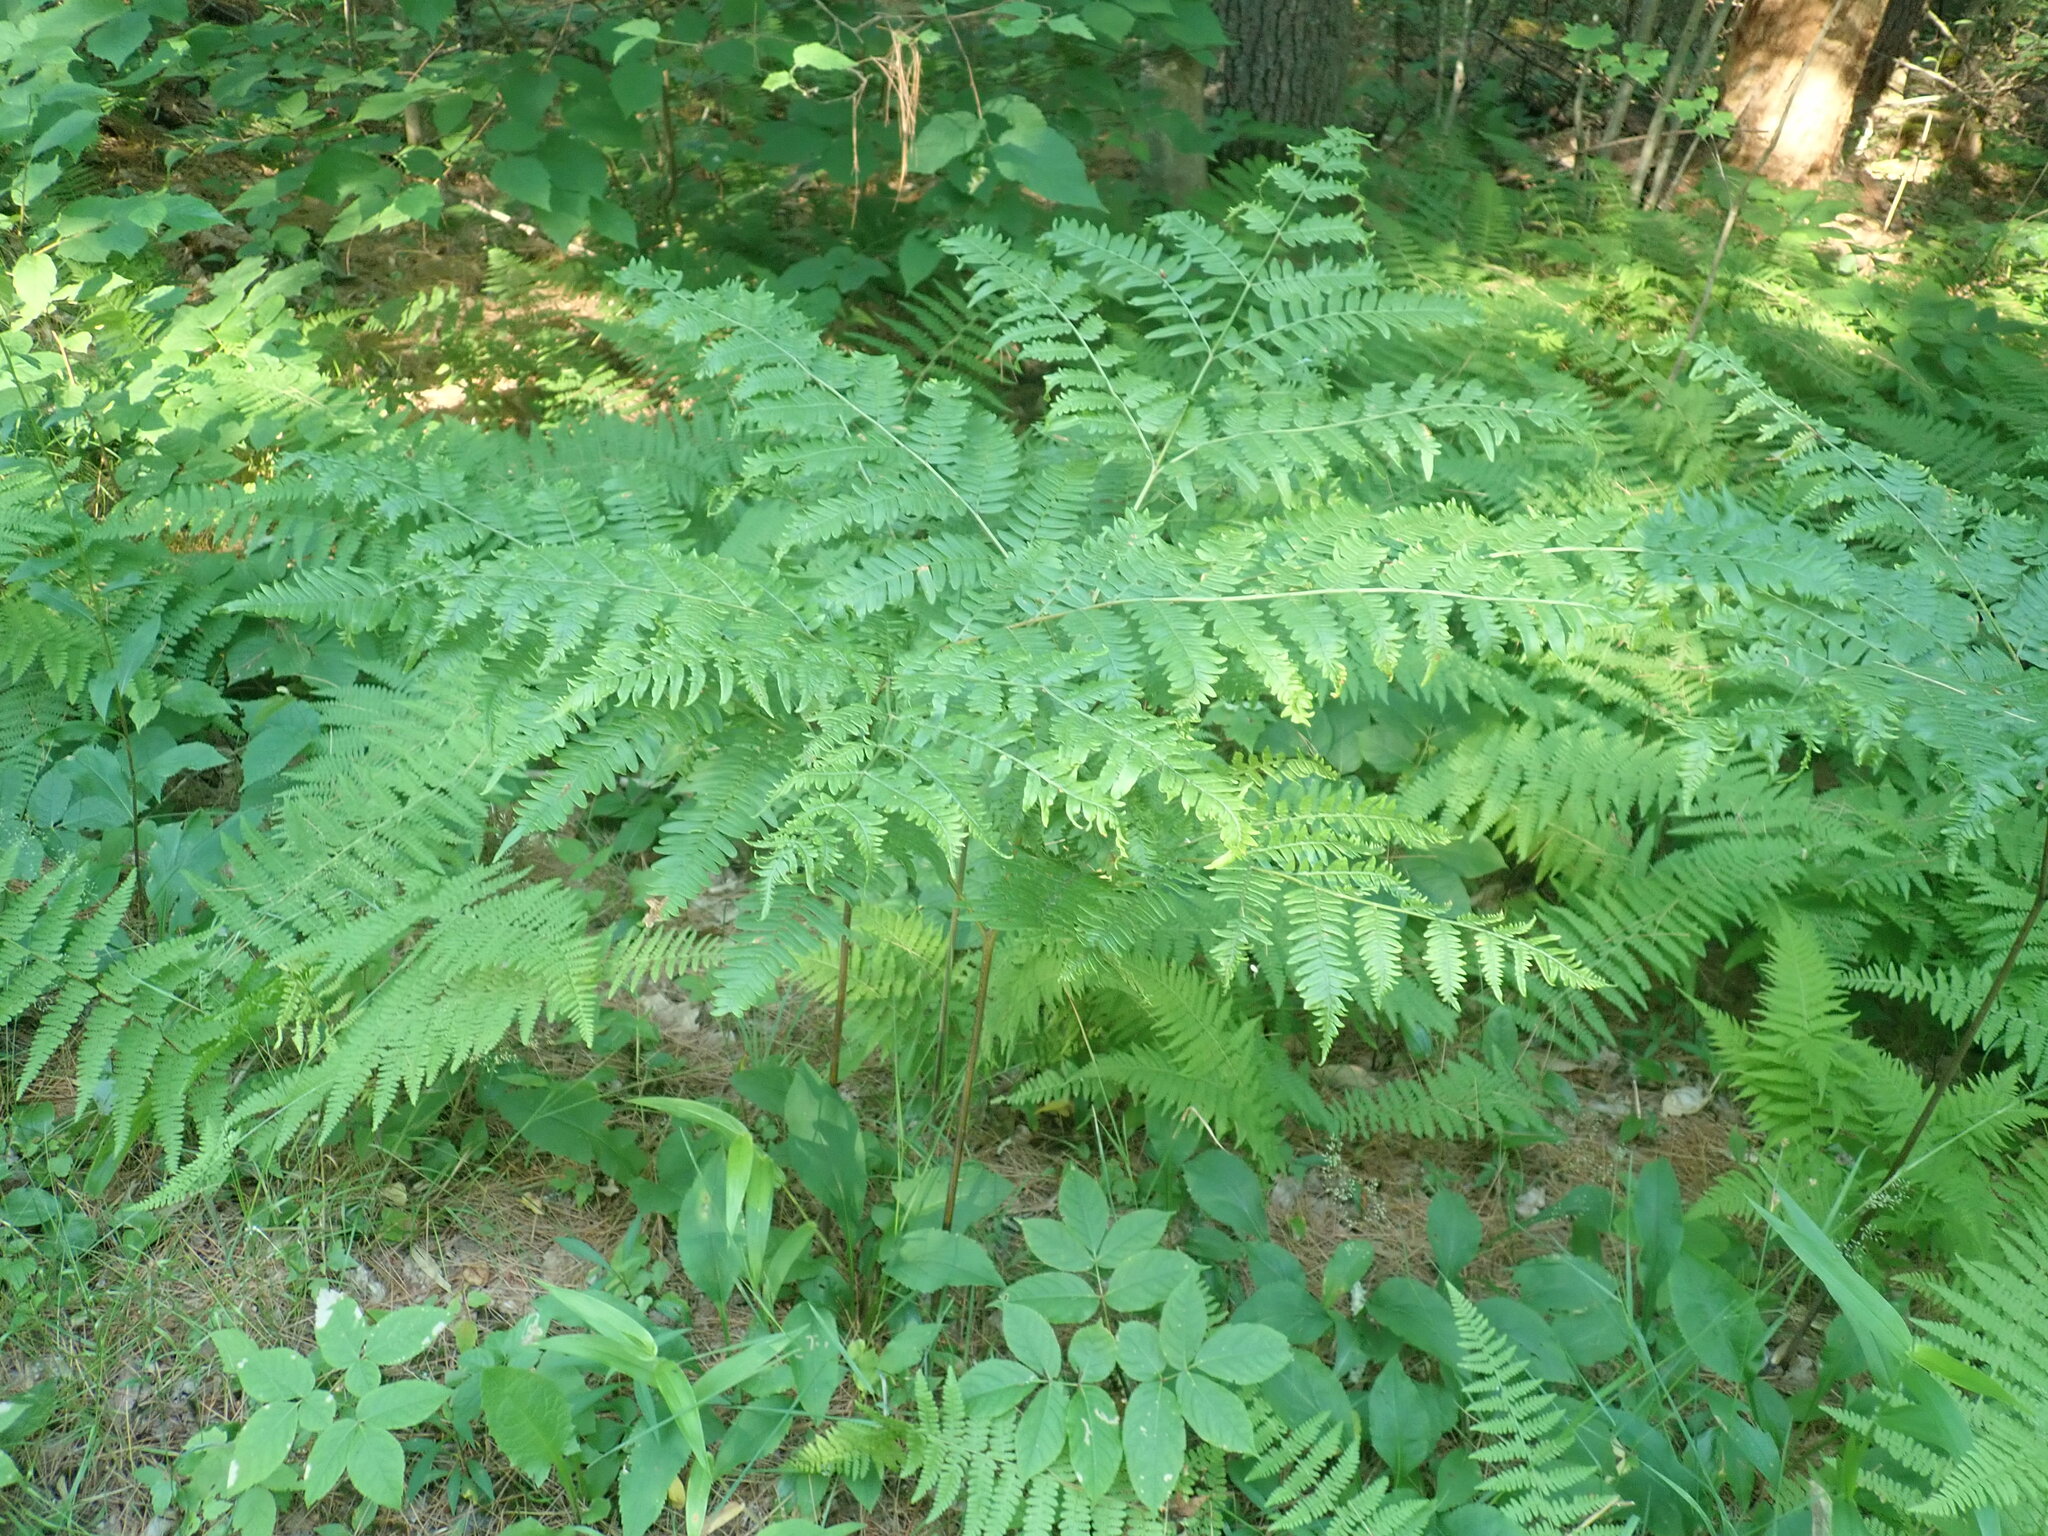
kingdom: Plantae
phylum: Tracheophyta
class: Polypodiopsida
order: Polypodiales
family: Dennstaedtiaceae
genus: Pteridium
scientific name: Pteridium aquilinum
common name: Bracken
